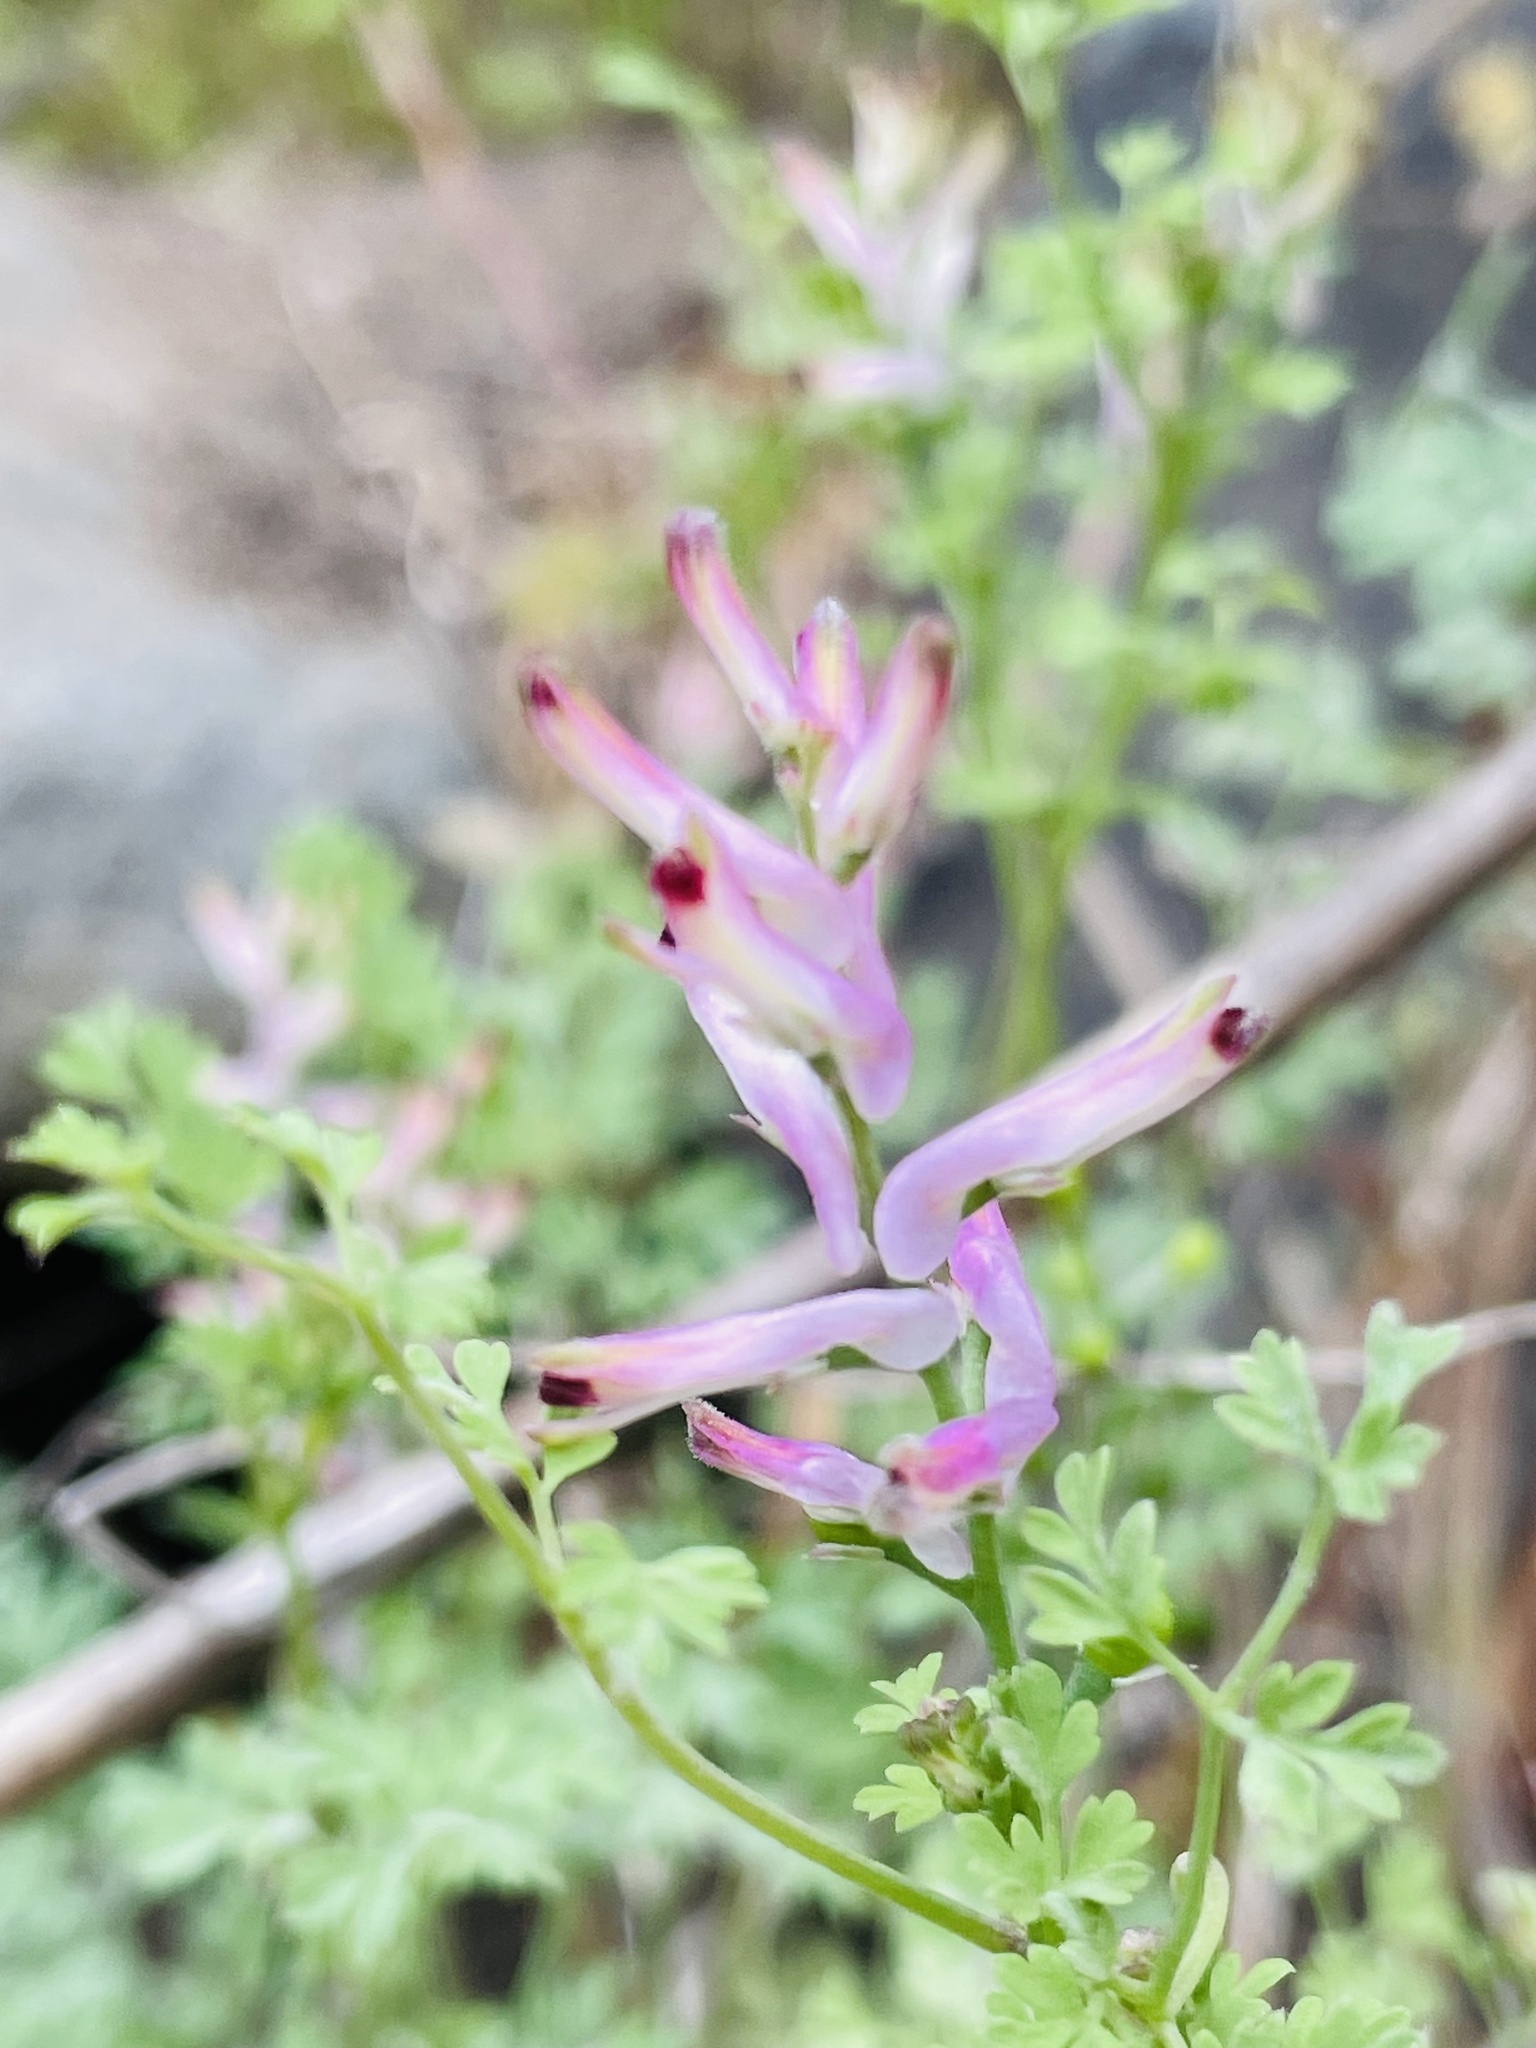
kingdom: Plantae
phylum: Tracheophyta
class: Magnoliopsida
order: Ranunculales
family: Papaveraceae
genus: Fumaria
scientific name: Fumaria agraria
